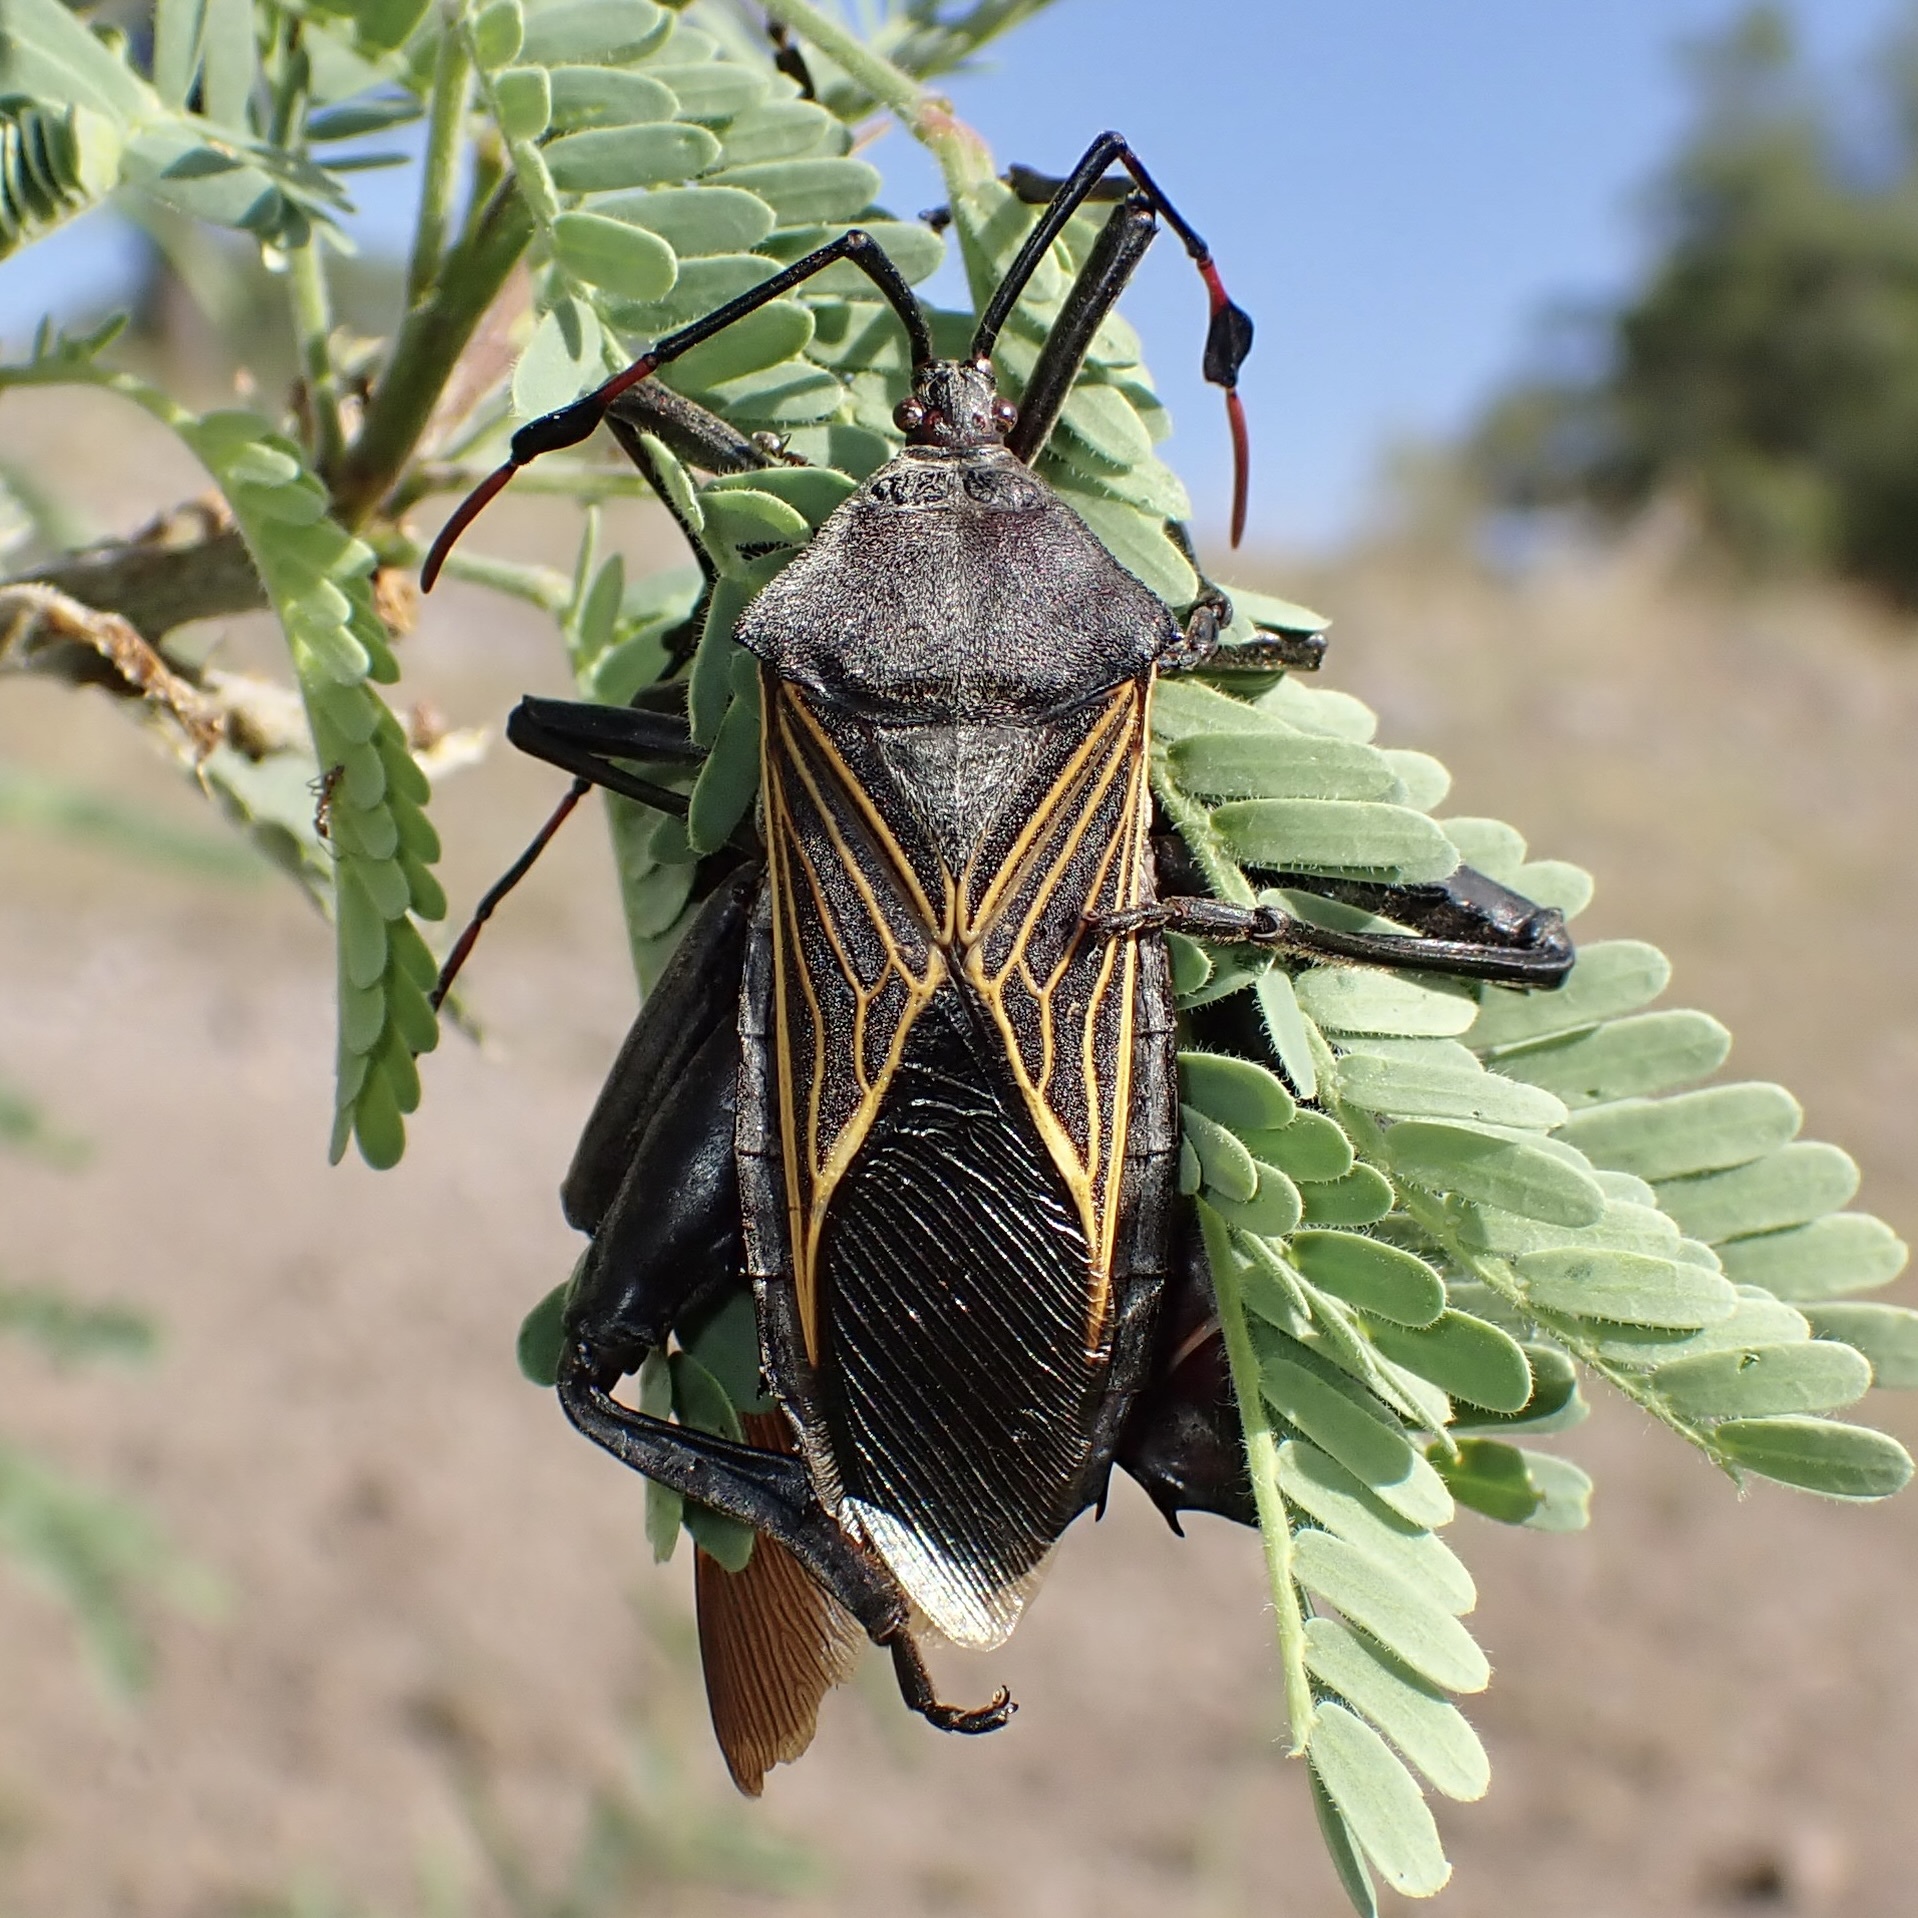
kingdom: Animalia
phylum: Arthropoda
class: Insecta
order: Hemiptera
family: Coreidae
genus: Thasus
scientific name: Thasus neocalifornicus
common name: Giant mesquite bug
